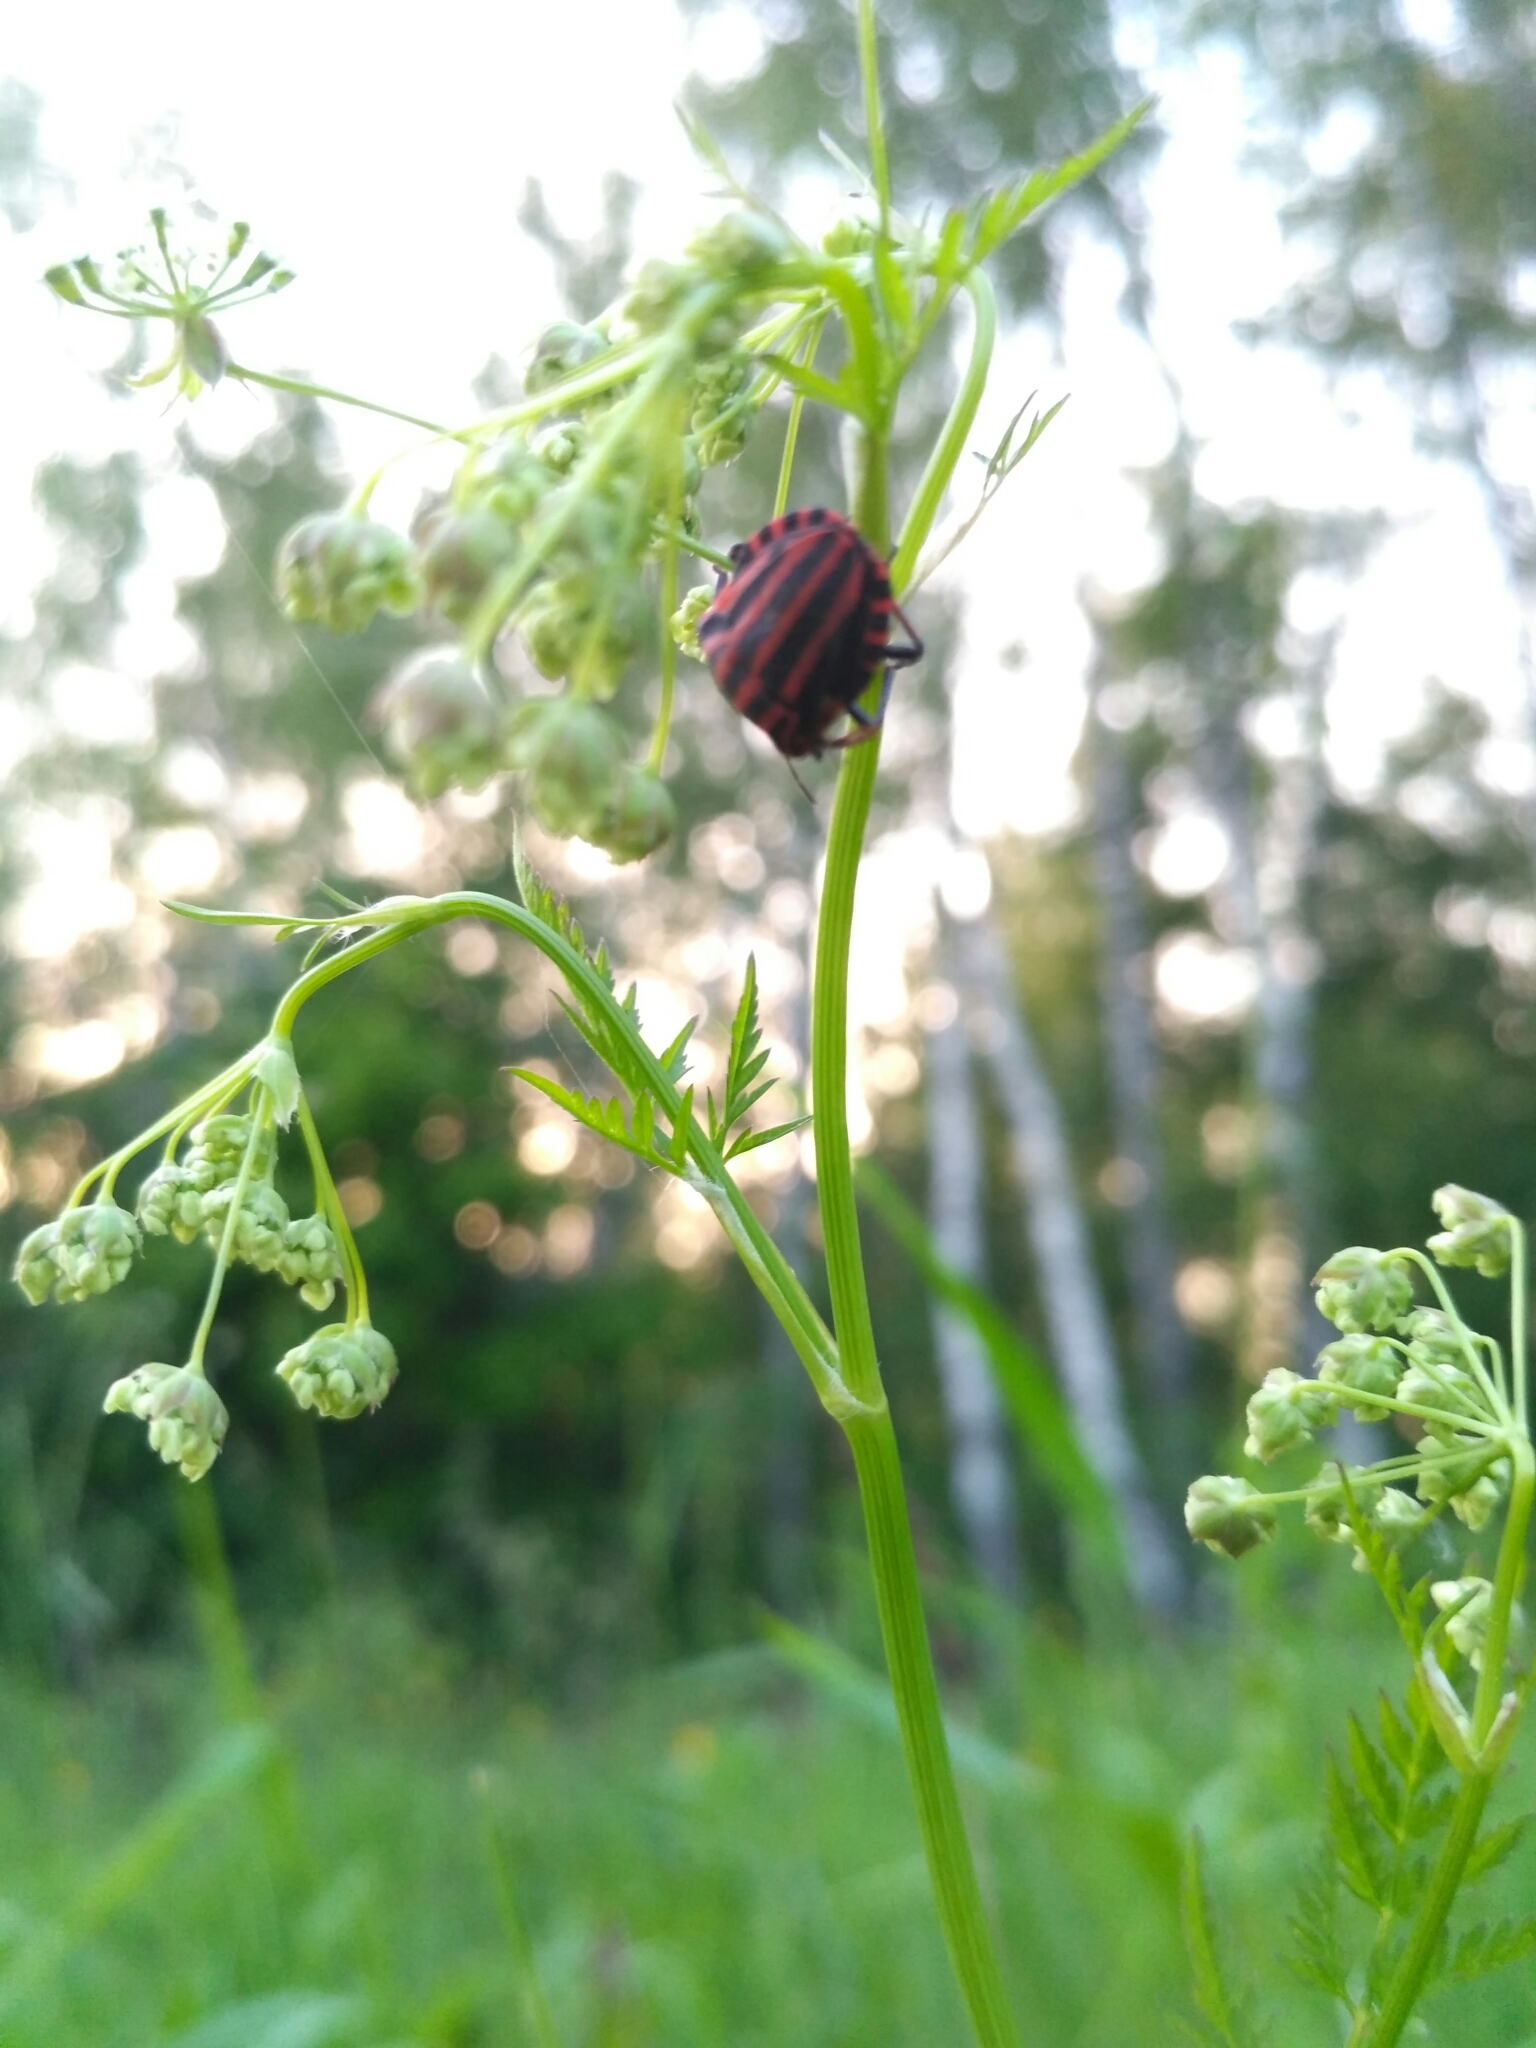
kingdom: Animalia
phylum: Arthropoda
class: Insecta
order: Hemiptera
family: Pentatomidae
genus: Graphosoma
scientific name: Graphosoma italicum
